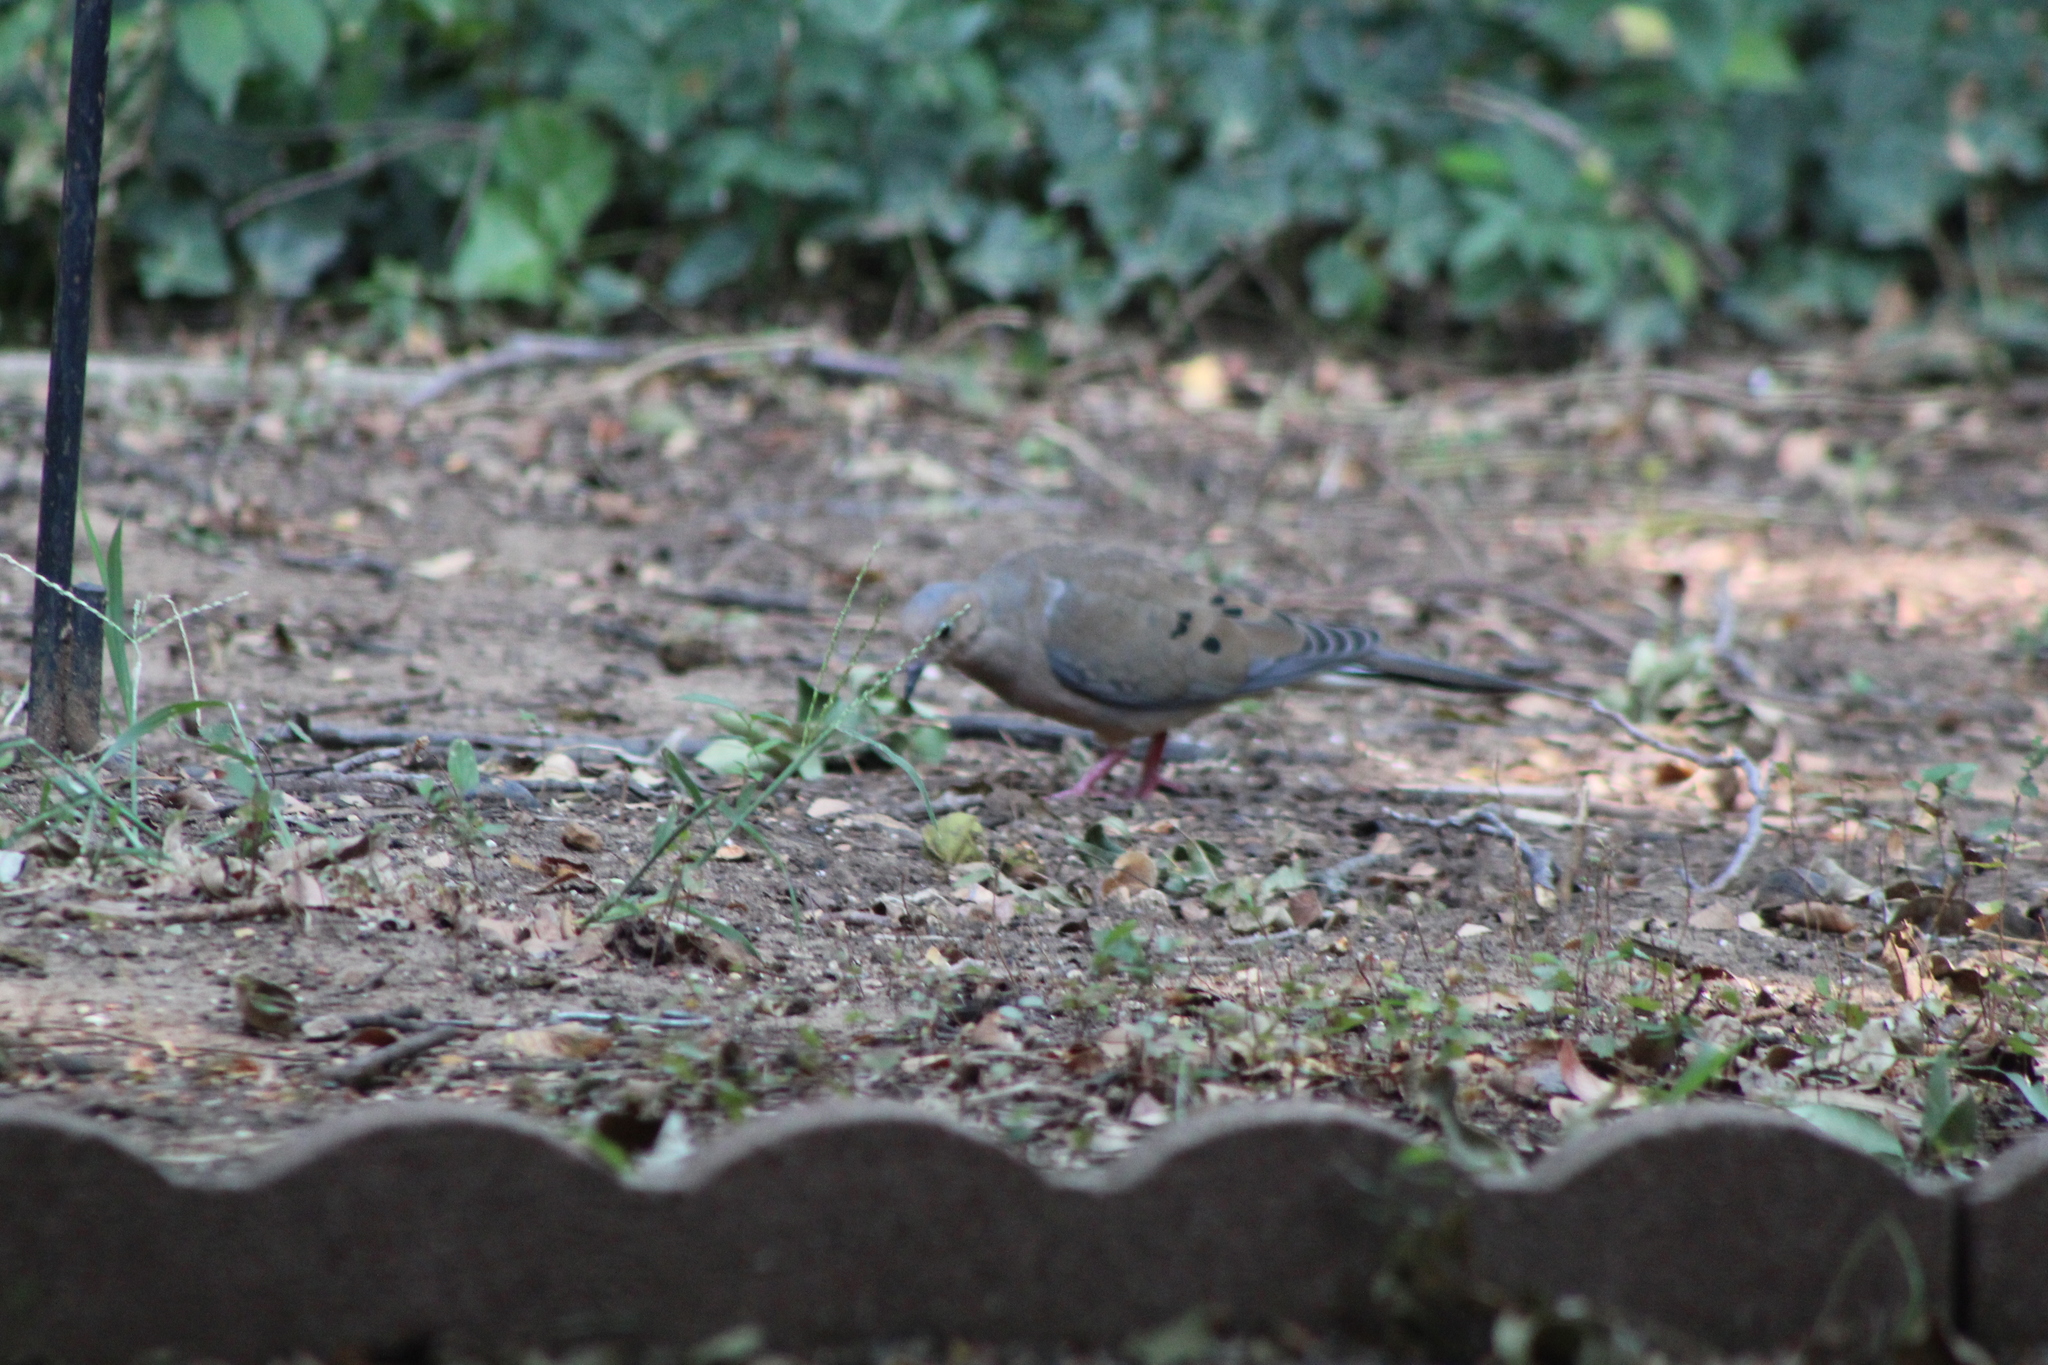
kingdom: Animalia
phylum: Chordata
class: Aves
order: Columbiformes
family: Columbidae
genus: Zenaida
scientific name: Zenaida macroura
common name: Mourning dove
